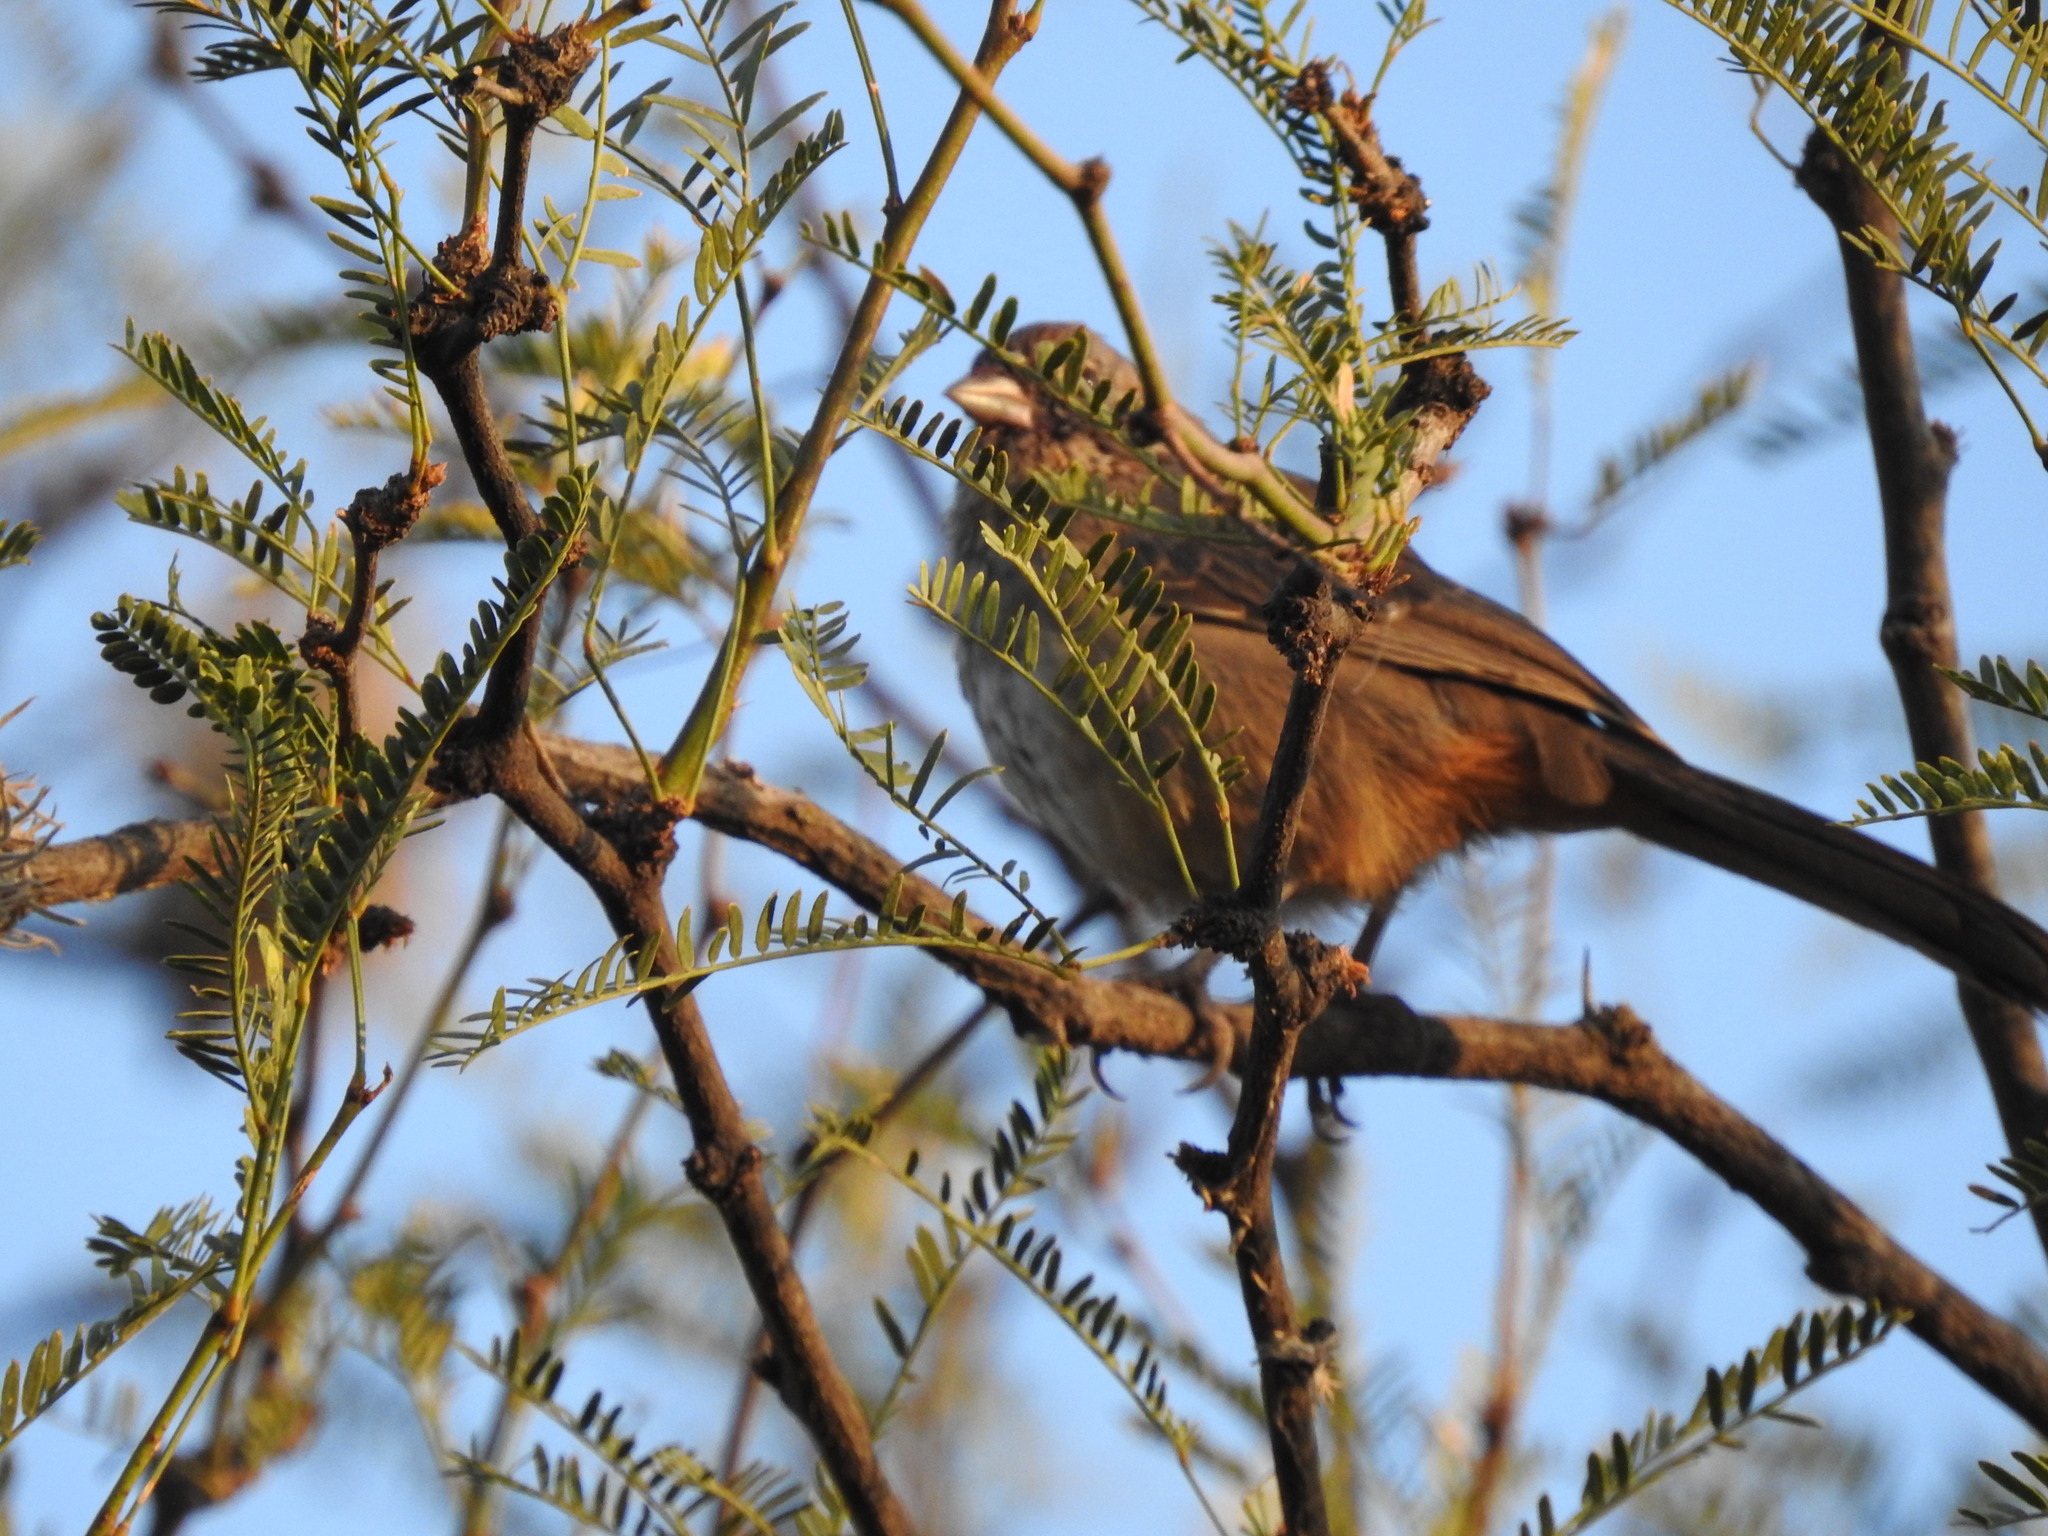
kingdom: Animalia
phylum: Chordata
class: Aves
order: Passeriformes
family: Passerellidae
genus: Melozone
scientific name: Melozone fusca
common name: Canyon towhee
